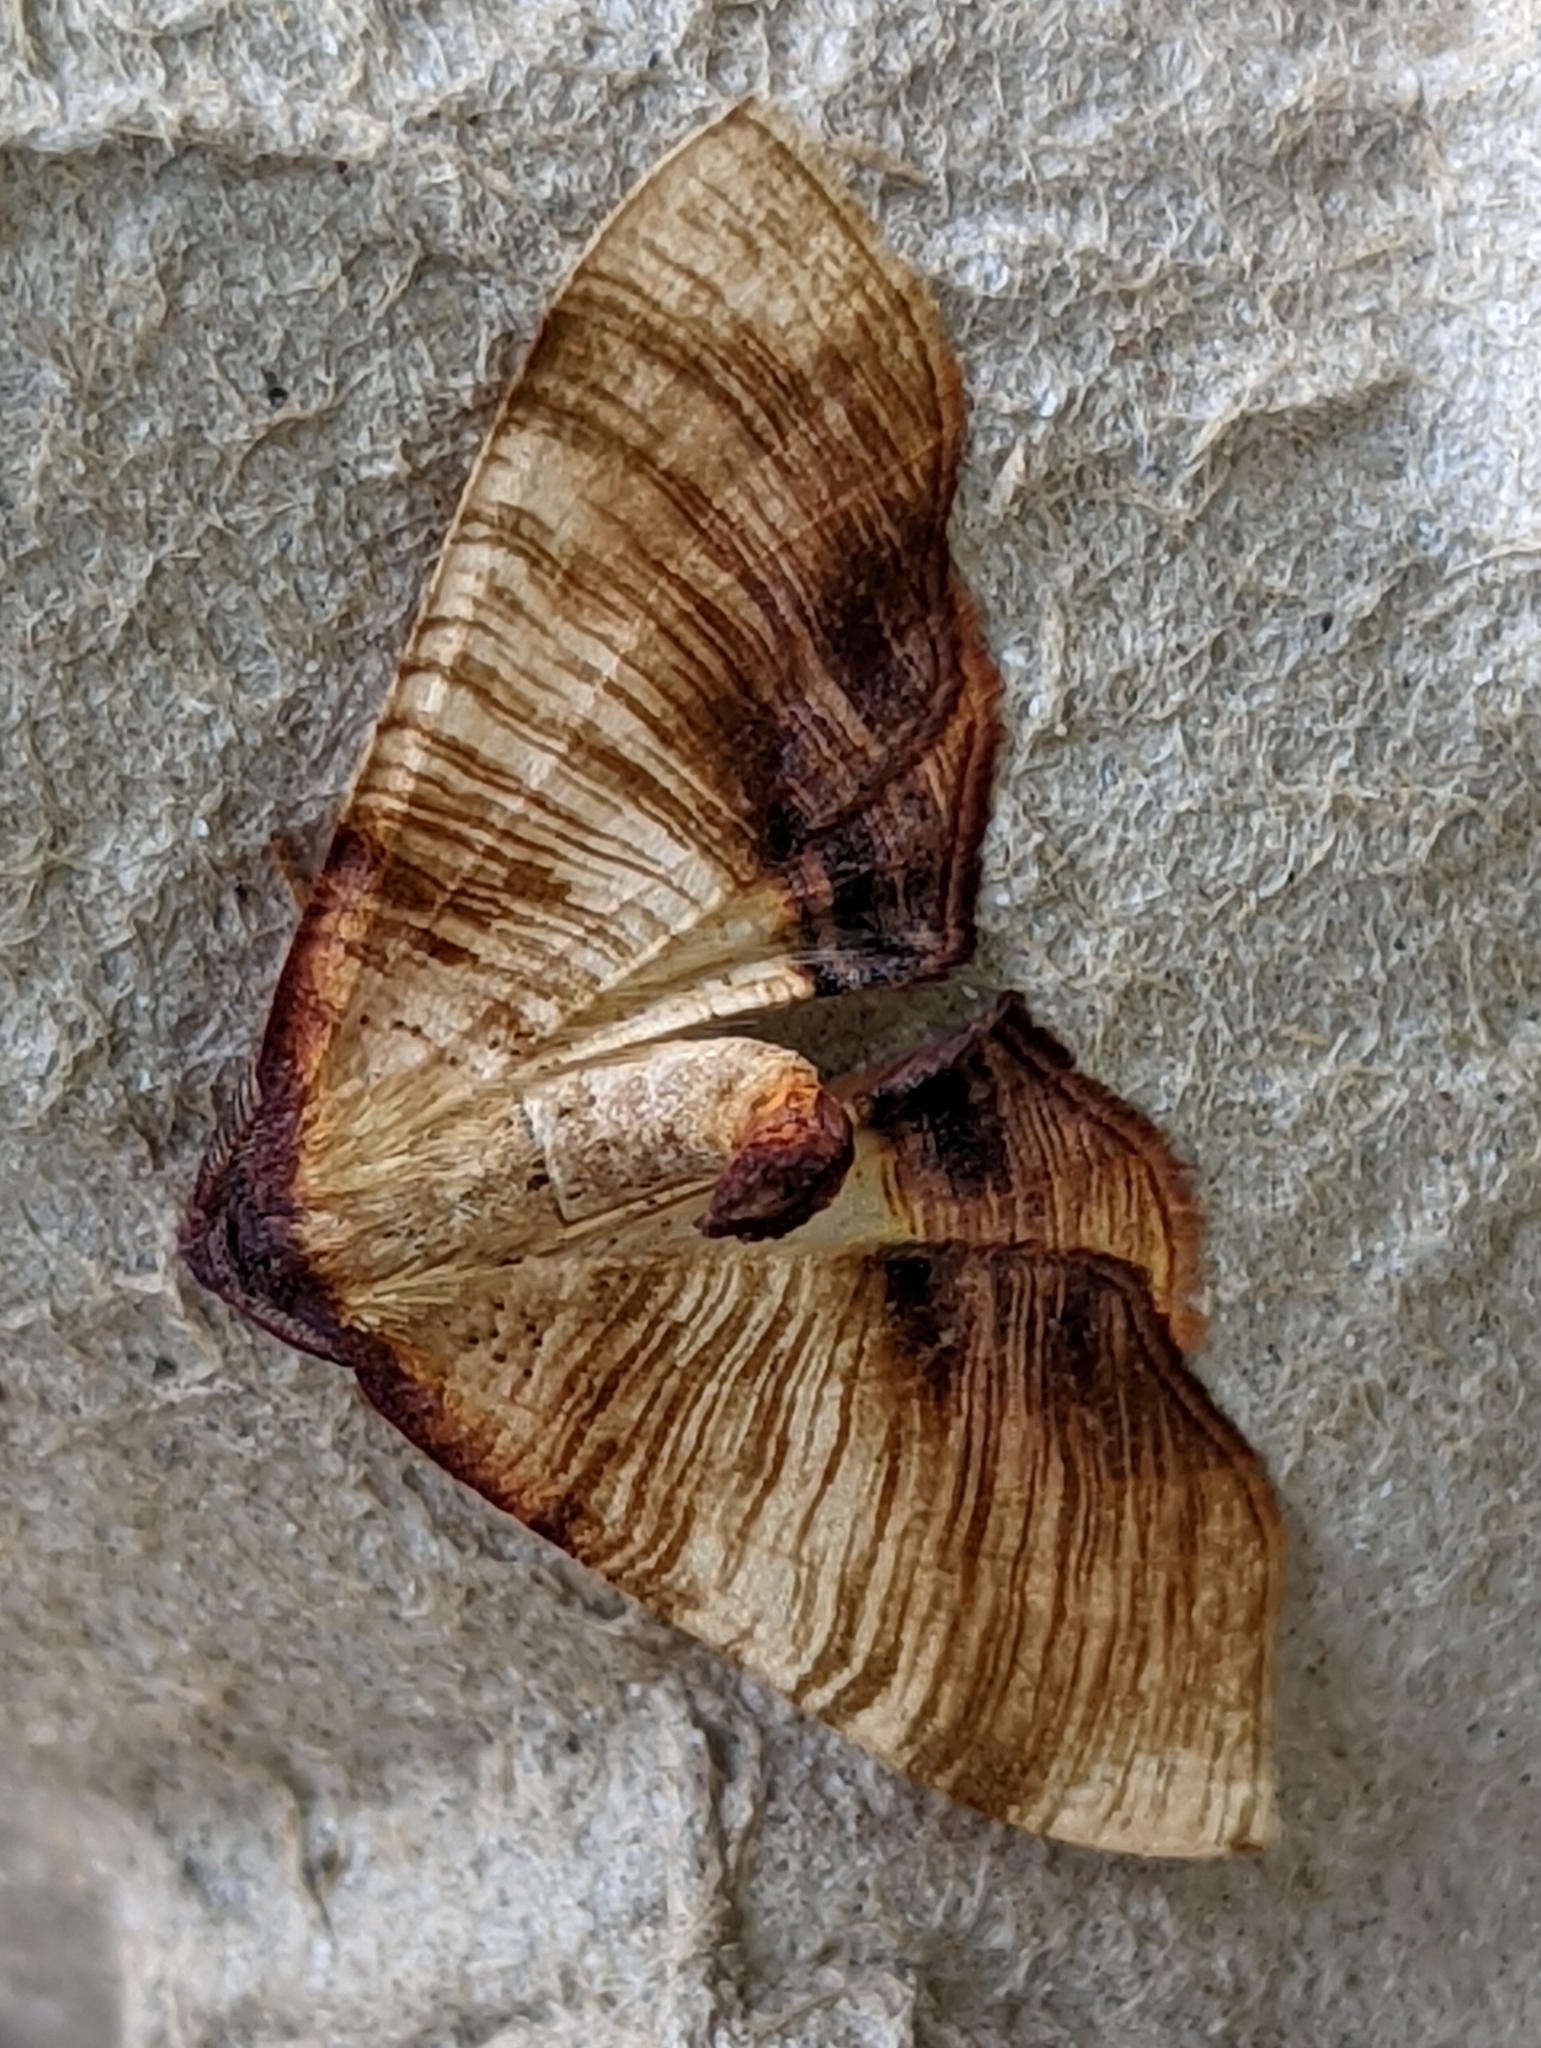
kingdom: Animalia
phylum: Arthropoda
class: Insecta
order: Lepidoptera
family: Geometridae
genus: Plagodis
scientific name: Plagodis dolabraria
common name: Scorched wing
